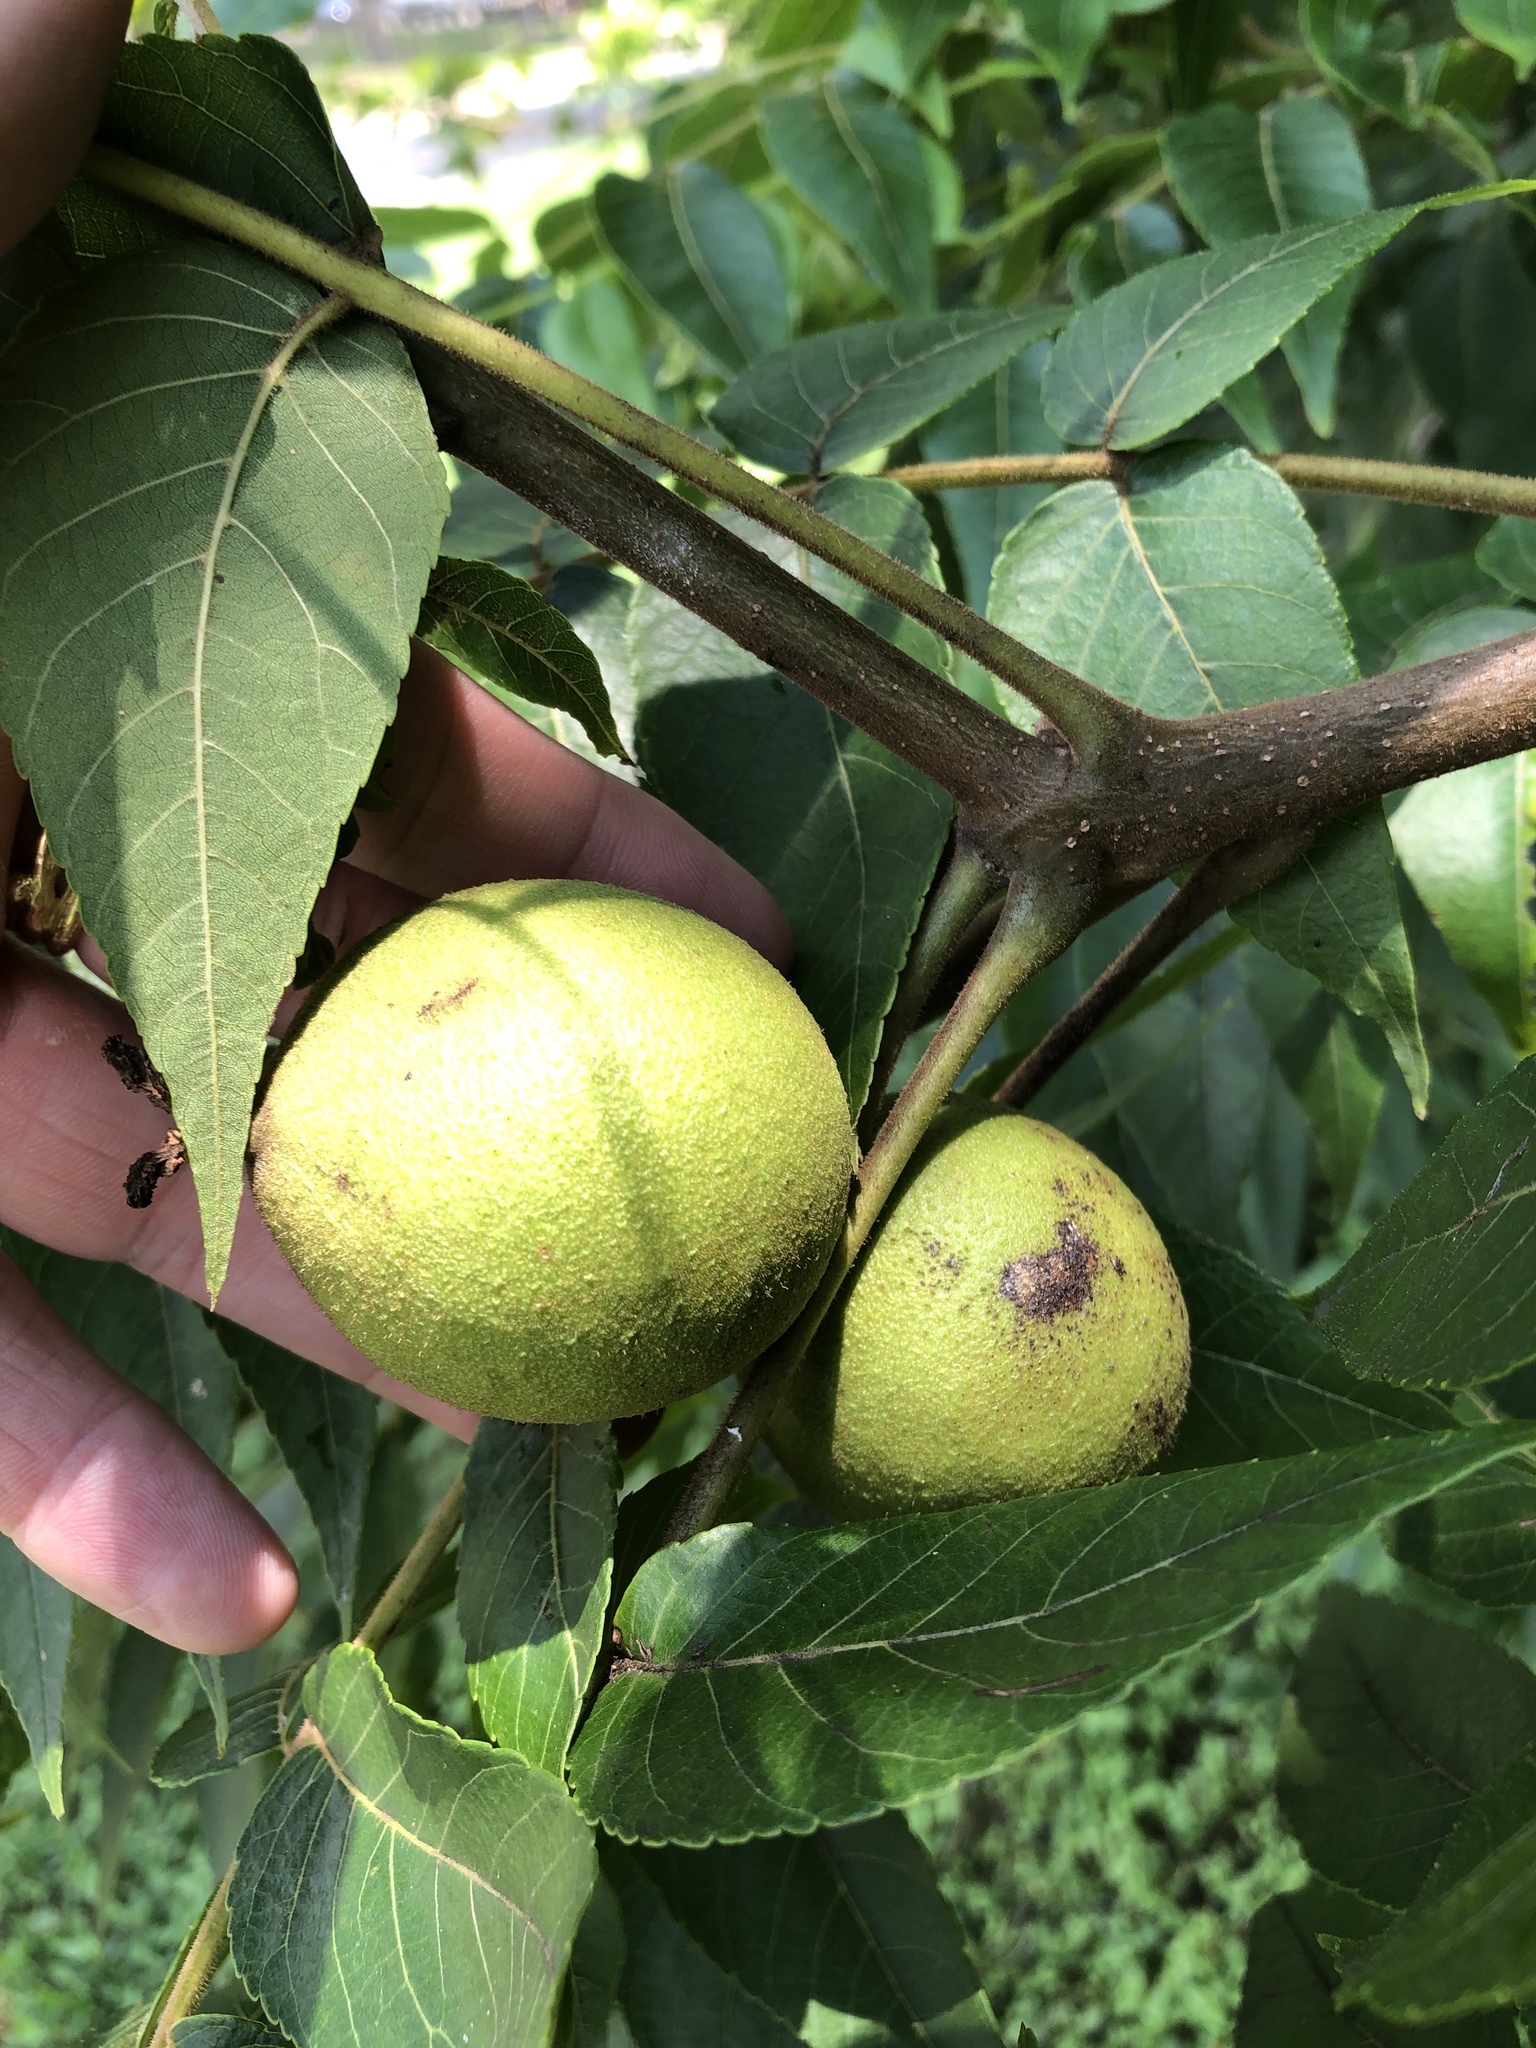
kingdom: Plantae
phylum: Tracheophyta
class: Magnoliopsida
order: Fagales
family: Juglandaceae
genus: Juglans
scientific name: Juglans nigra
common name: Black walnut
